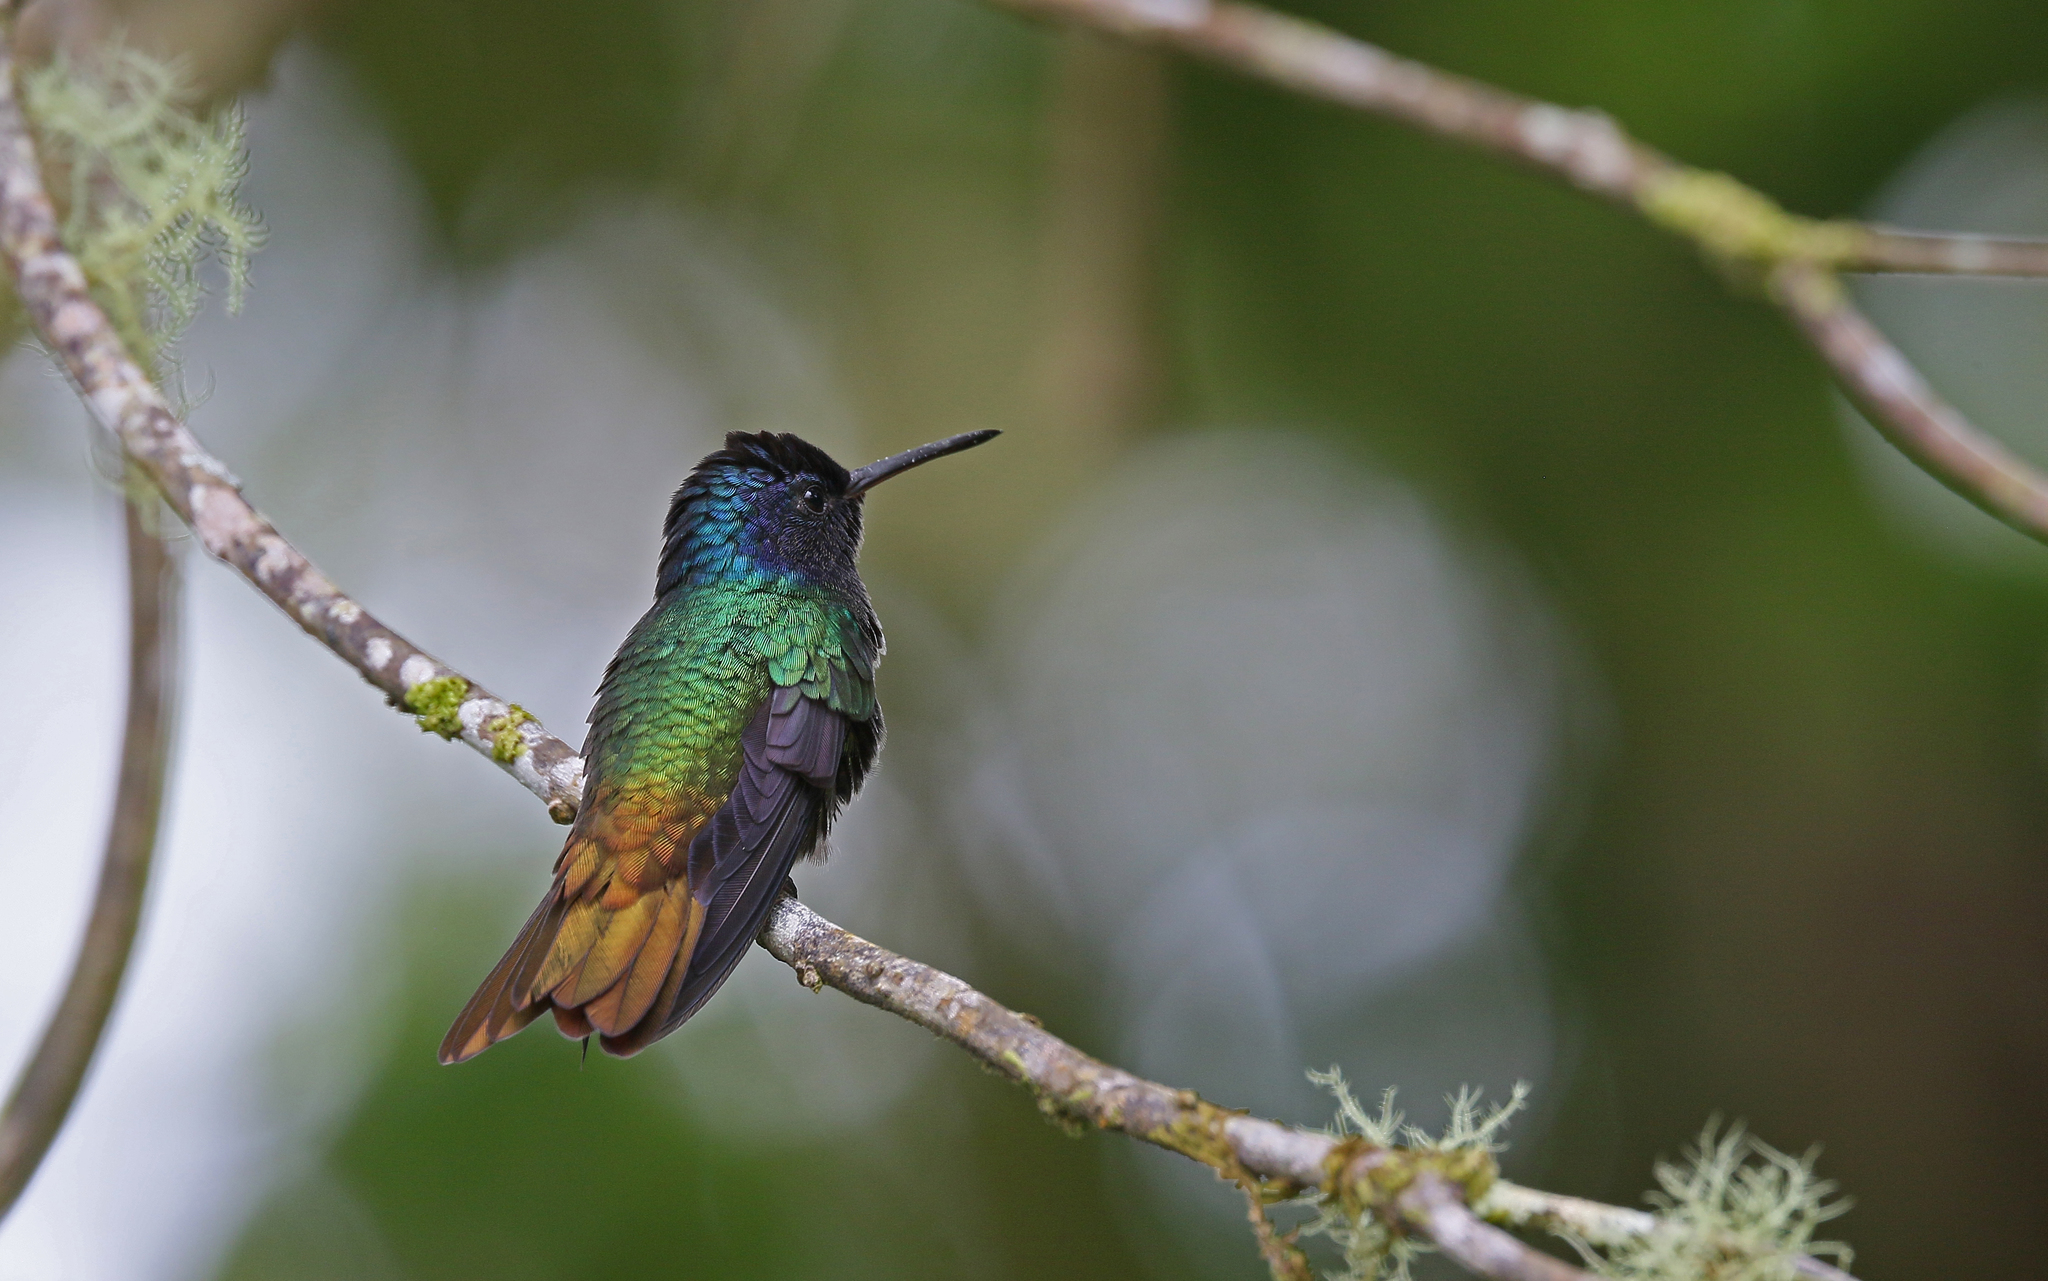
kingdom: Animalia
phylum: Chordata
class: Aves
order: Apodiformes
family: Trochilidae
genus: Chrysuronia
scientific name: Chrysuronia oenone
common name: Golden-tailed sapphire
